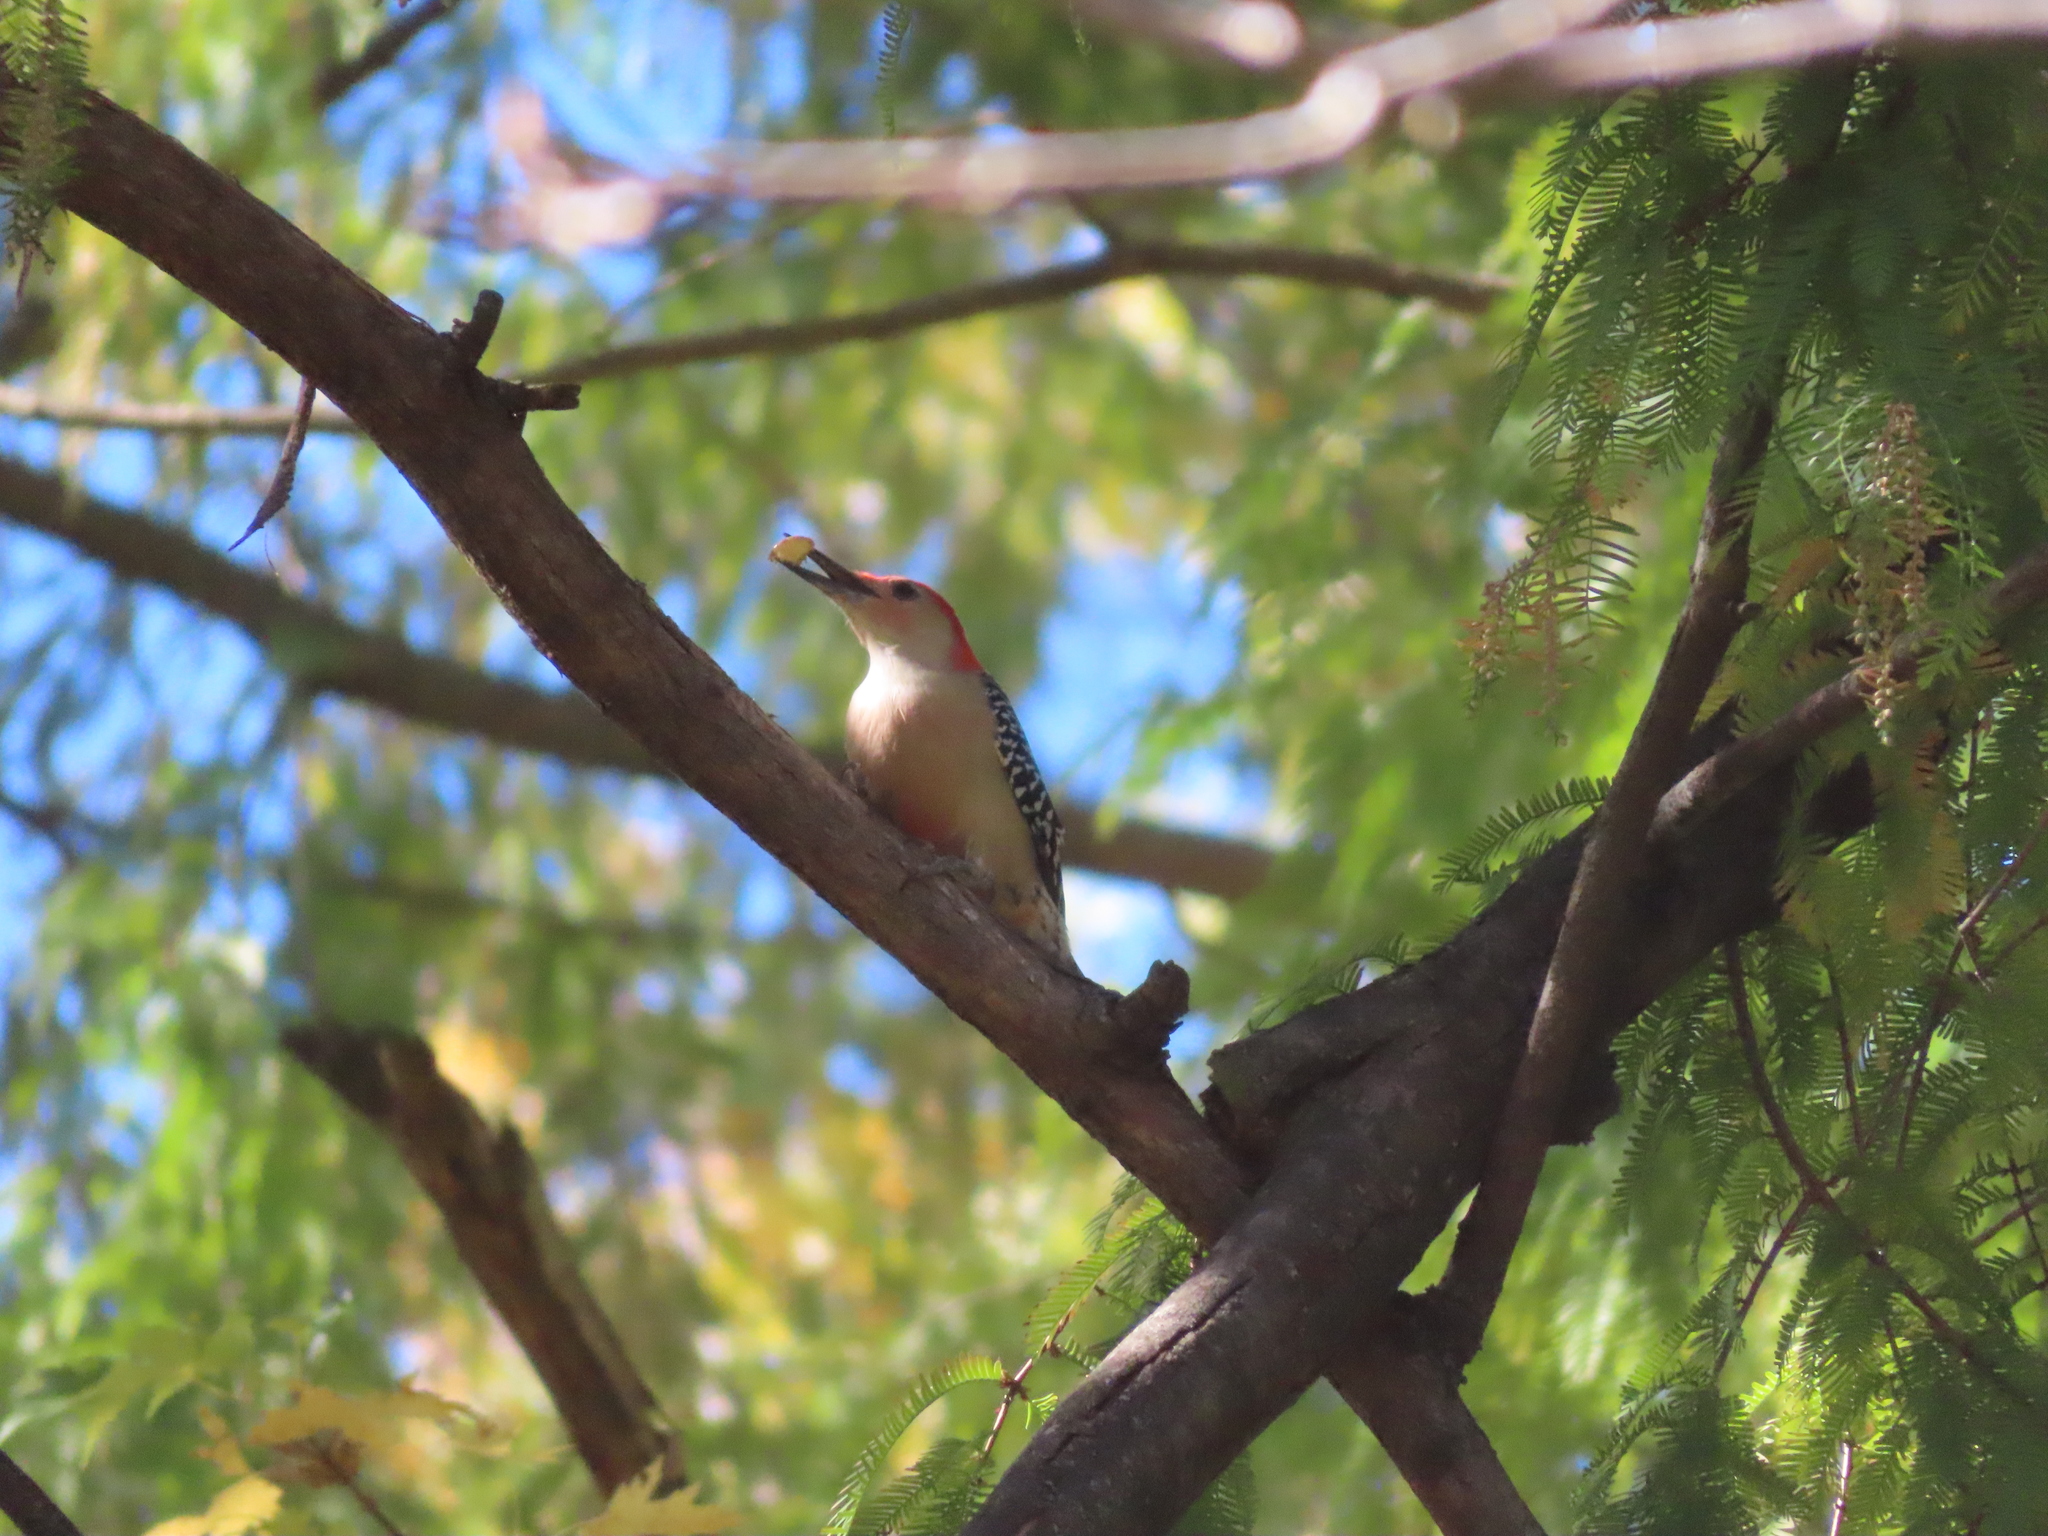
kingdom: Animalia
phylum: Chordata
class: Aves
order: Piciformes
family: Picidae
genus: Melanerpes
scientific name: Melanerpes carolinus
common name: Red-bellied woodpecker
